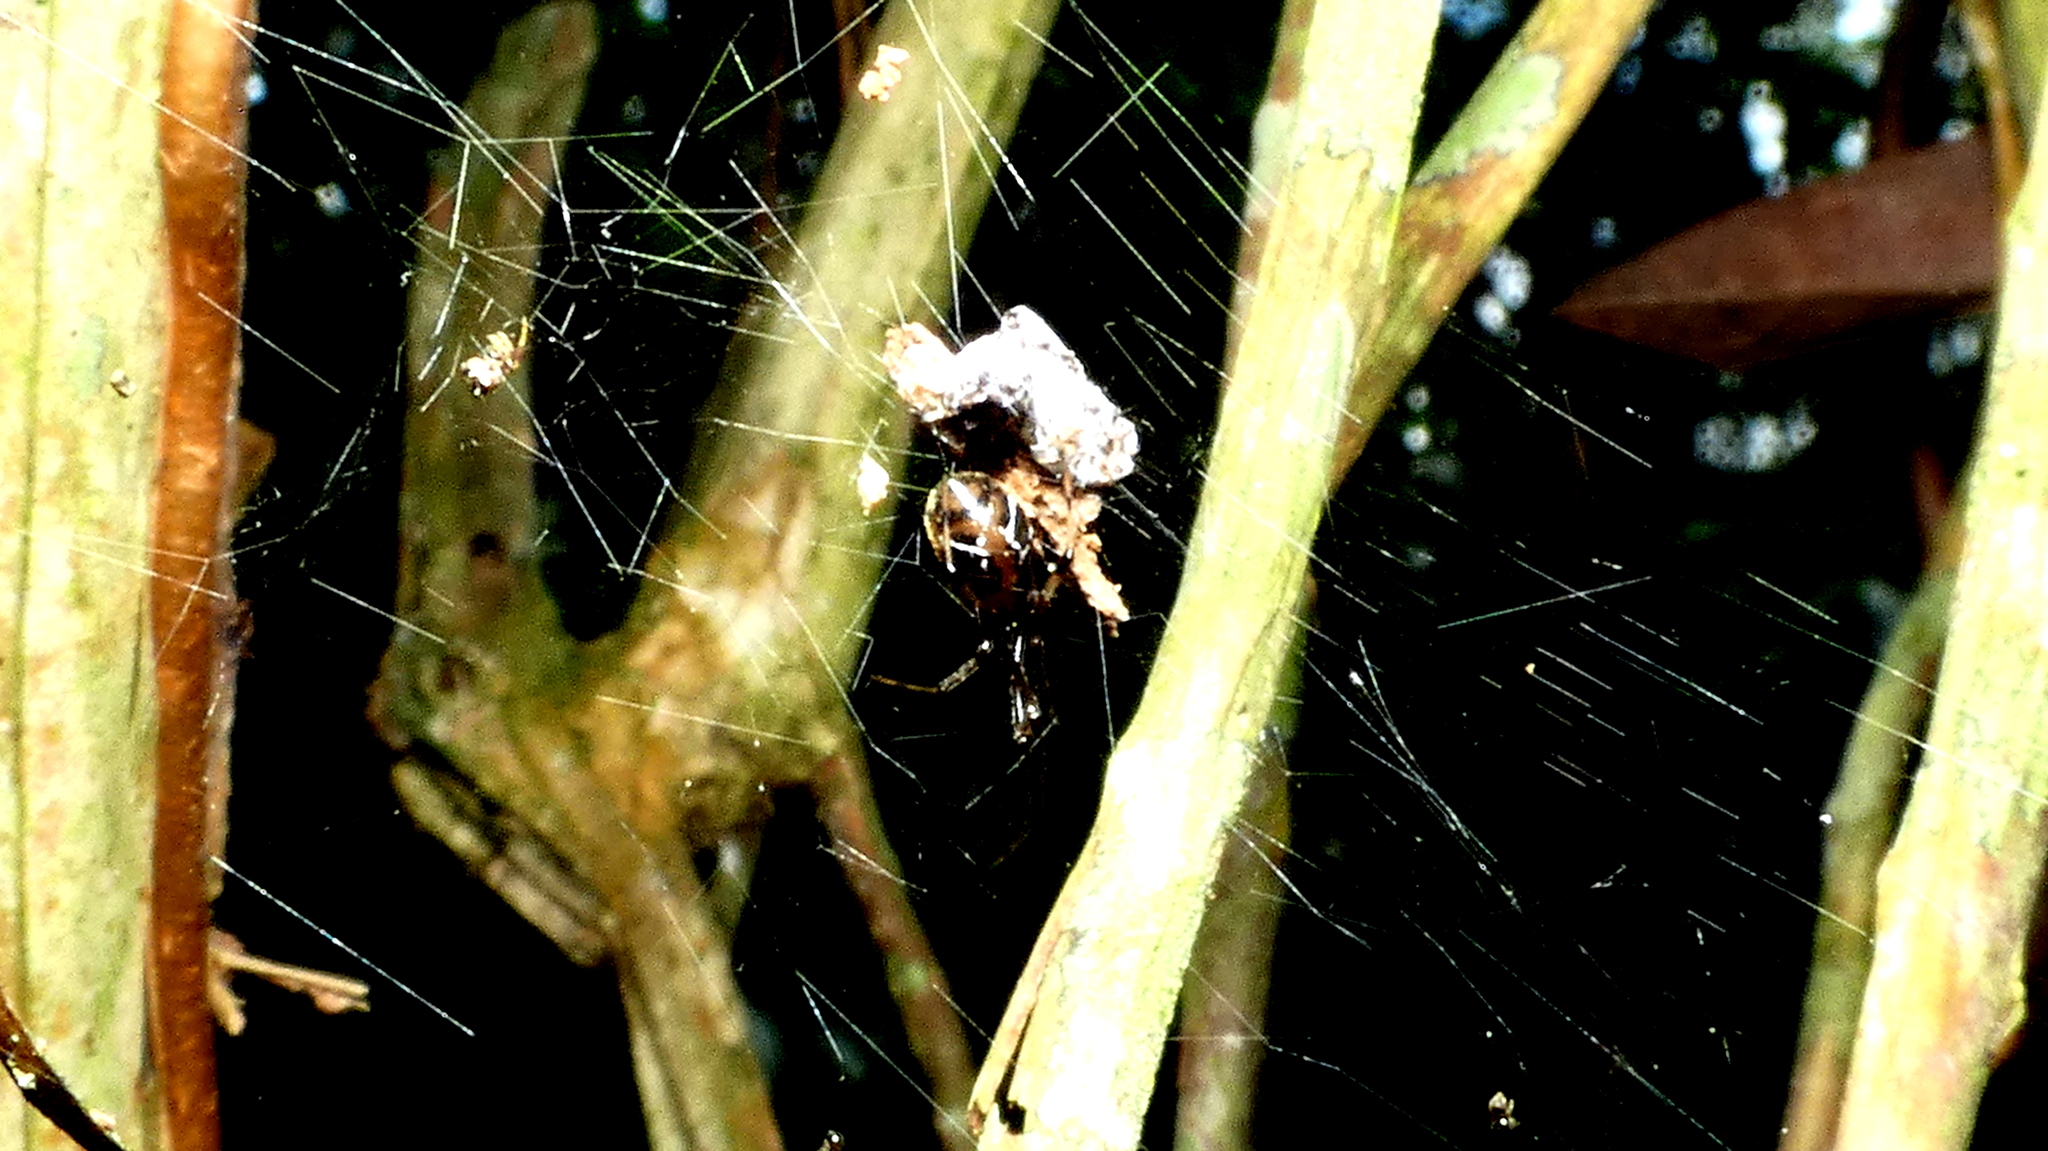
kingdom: Animalia
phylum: Arthropoda
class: Arachnida
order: Araneae
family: Theridiidae
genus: Nihonhimea
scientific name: Nihonhimea tesselata
